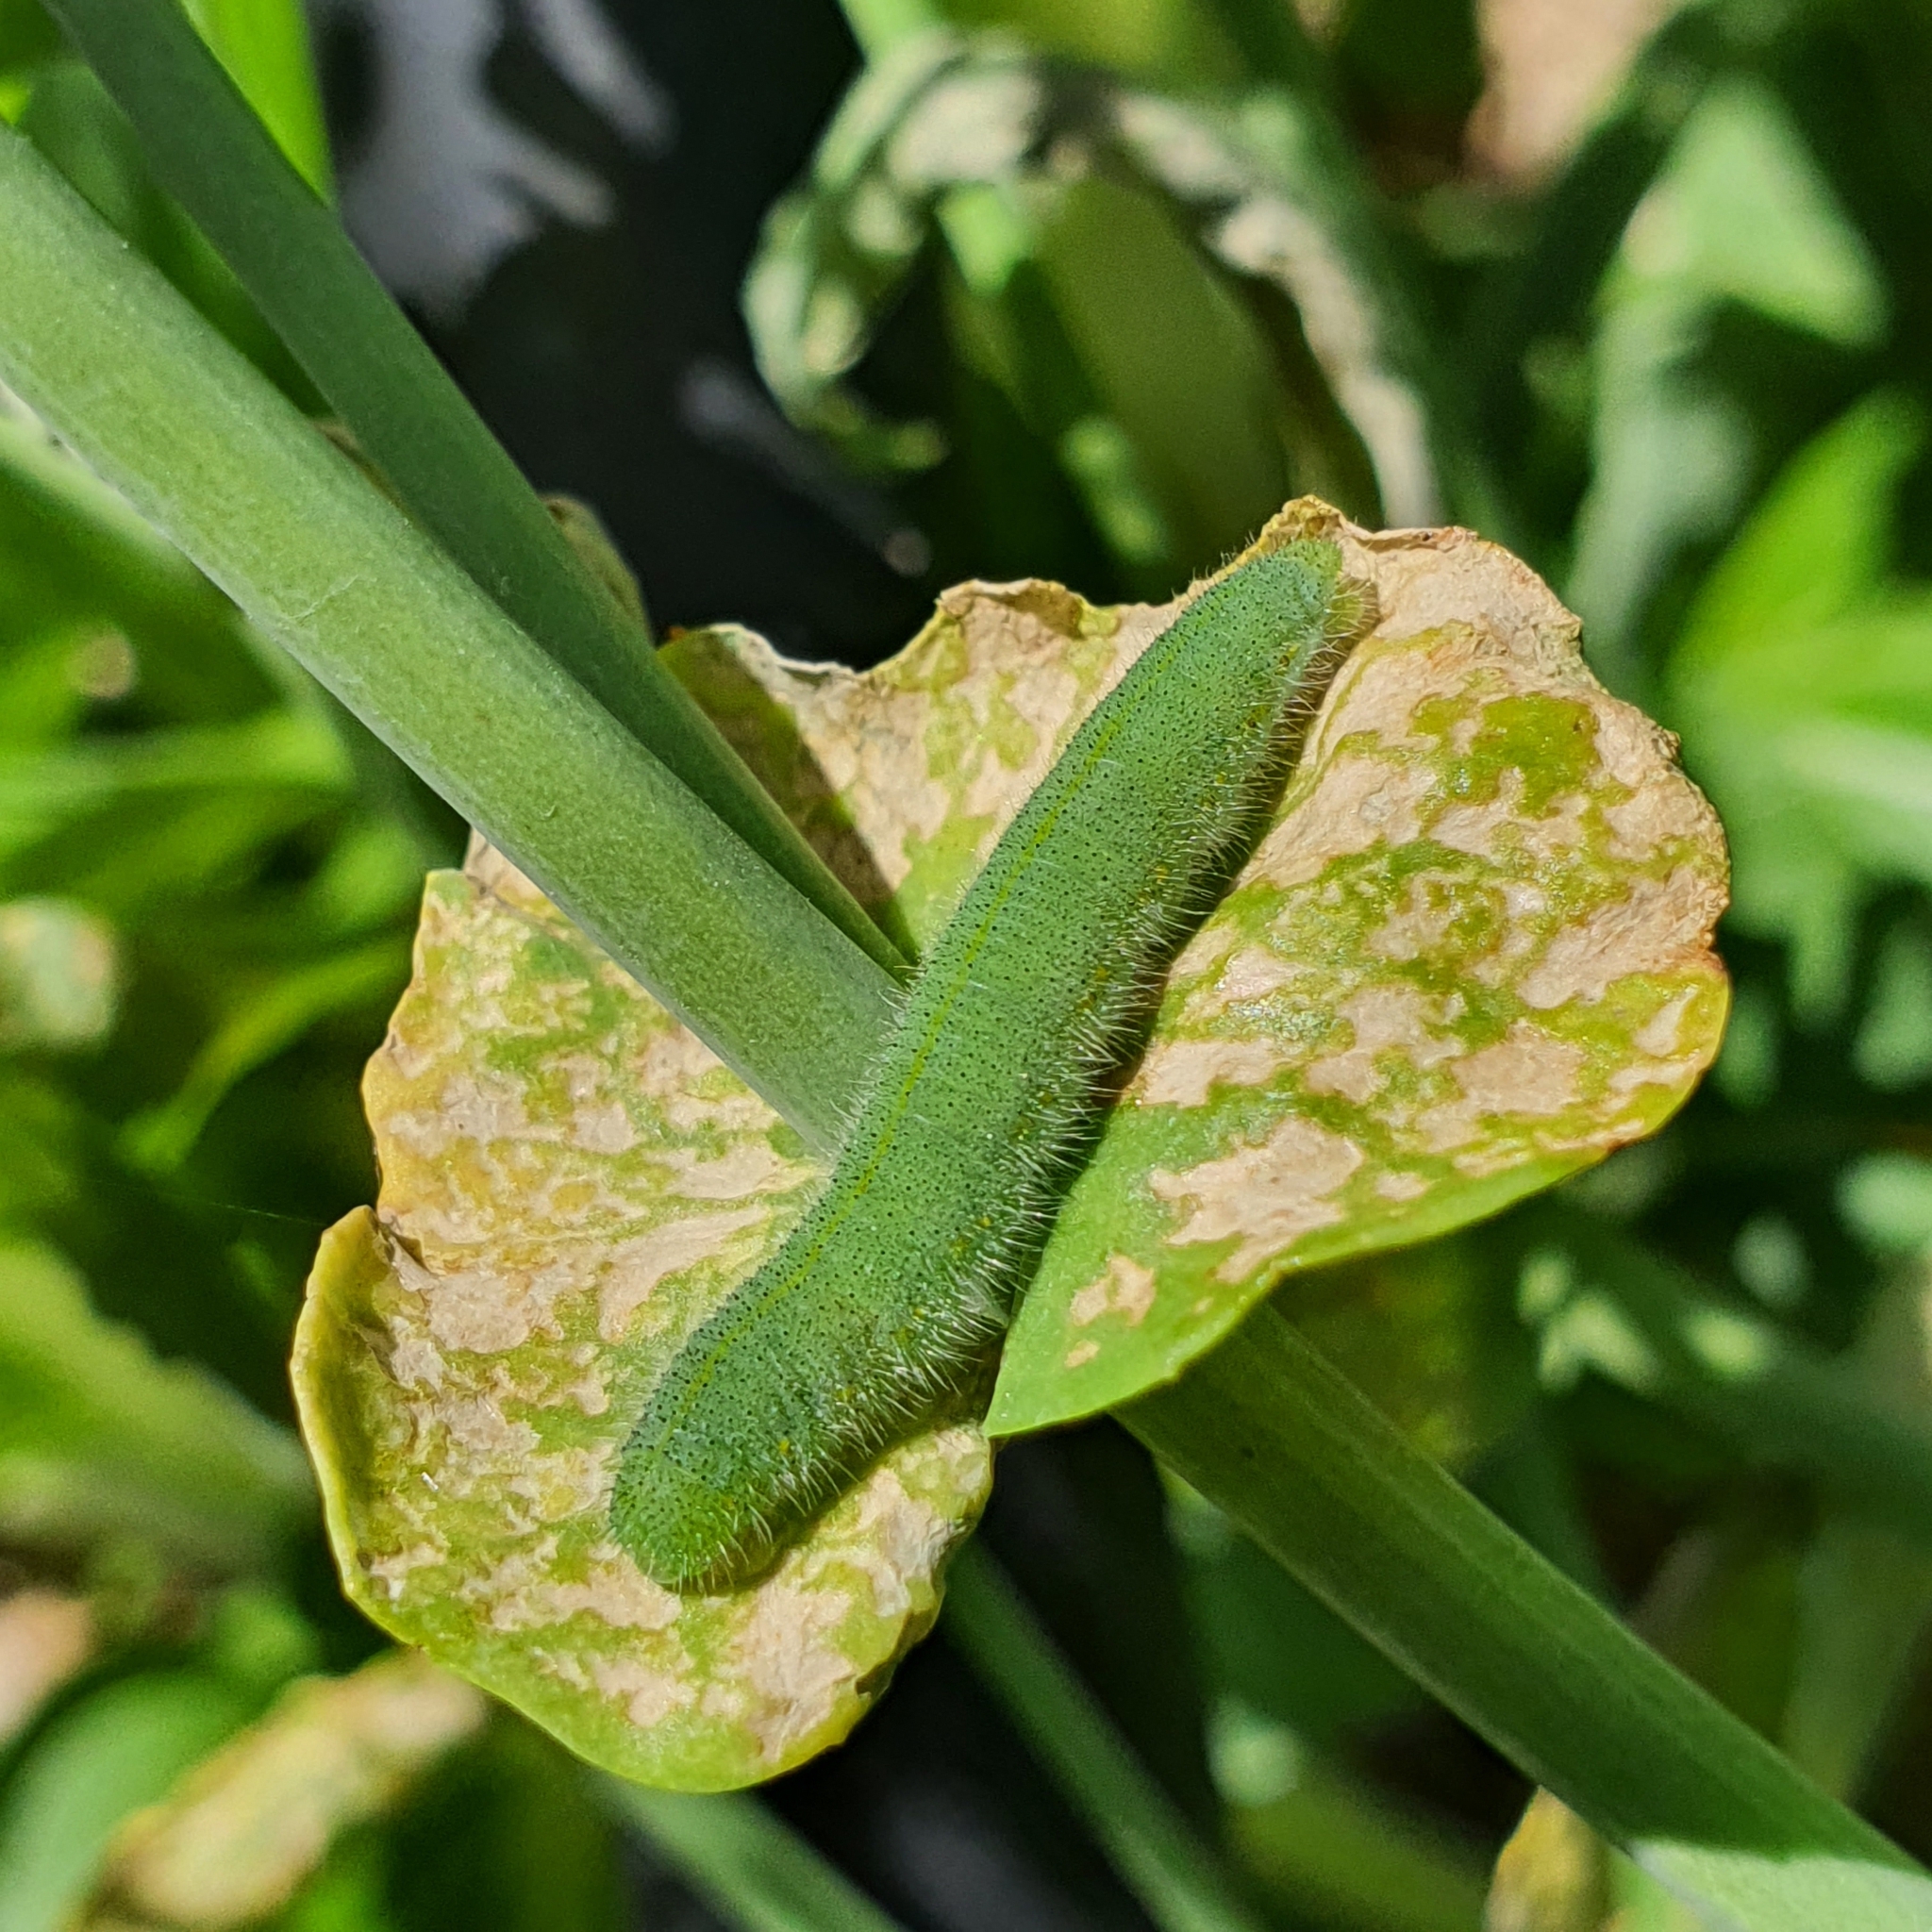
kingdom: Animalia
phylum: Arthropoda
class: Insecta
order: Lepidoptera
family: Pieridae
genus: Pieris
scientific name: Pieris rapae
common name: Small white
